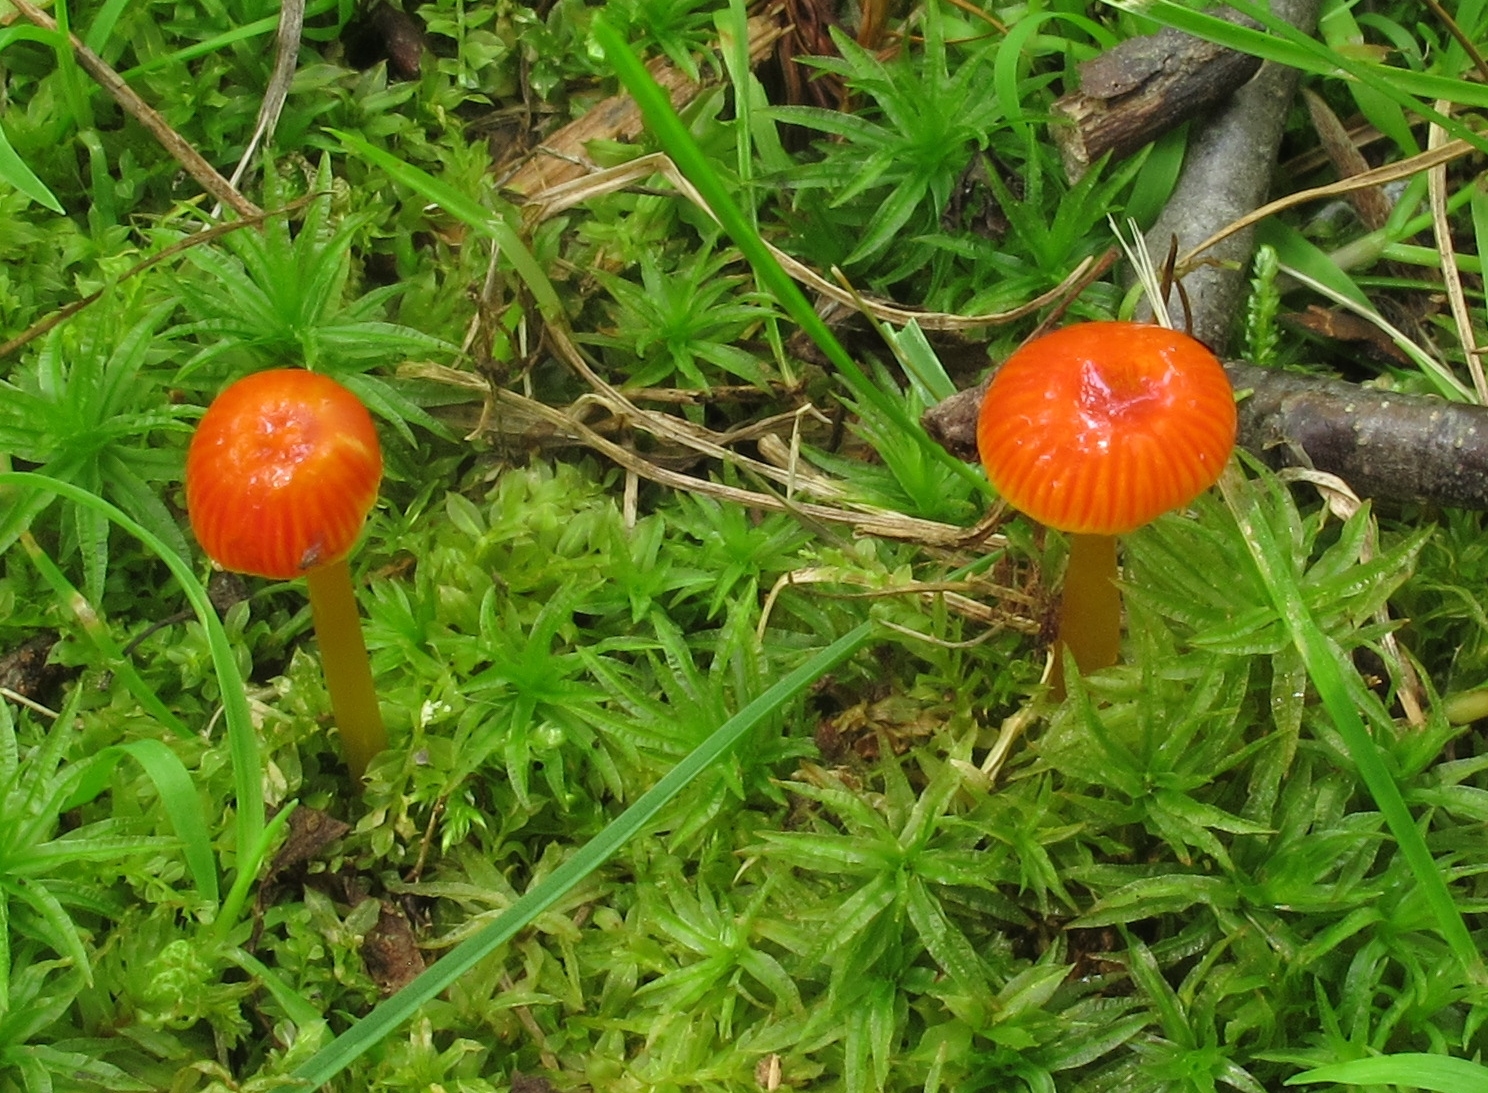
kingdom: Fungi
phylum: Basidiomycota
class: Agaricomycetes
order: Agaricales
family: Hygrophoraceae
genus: Hygrocybe
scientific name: Hygrocybe minutula
